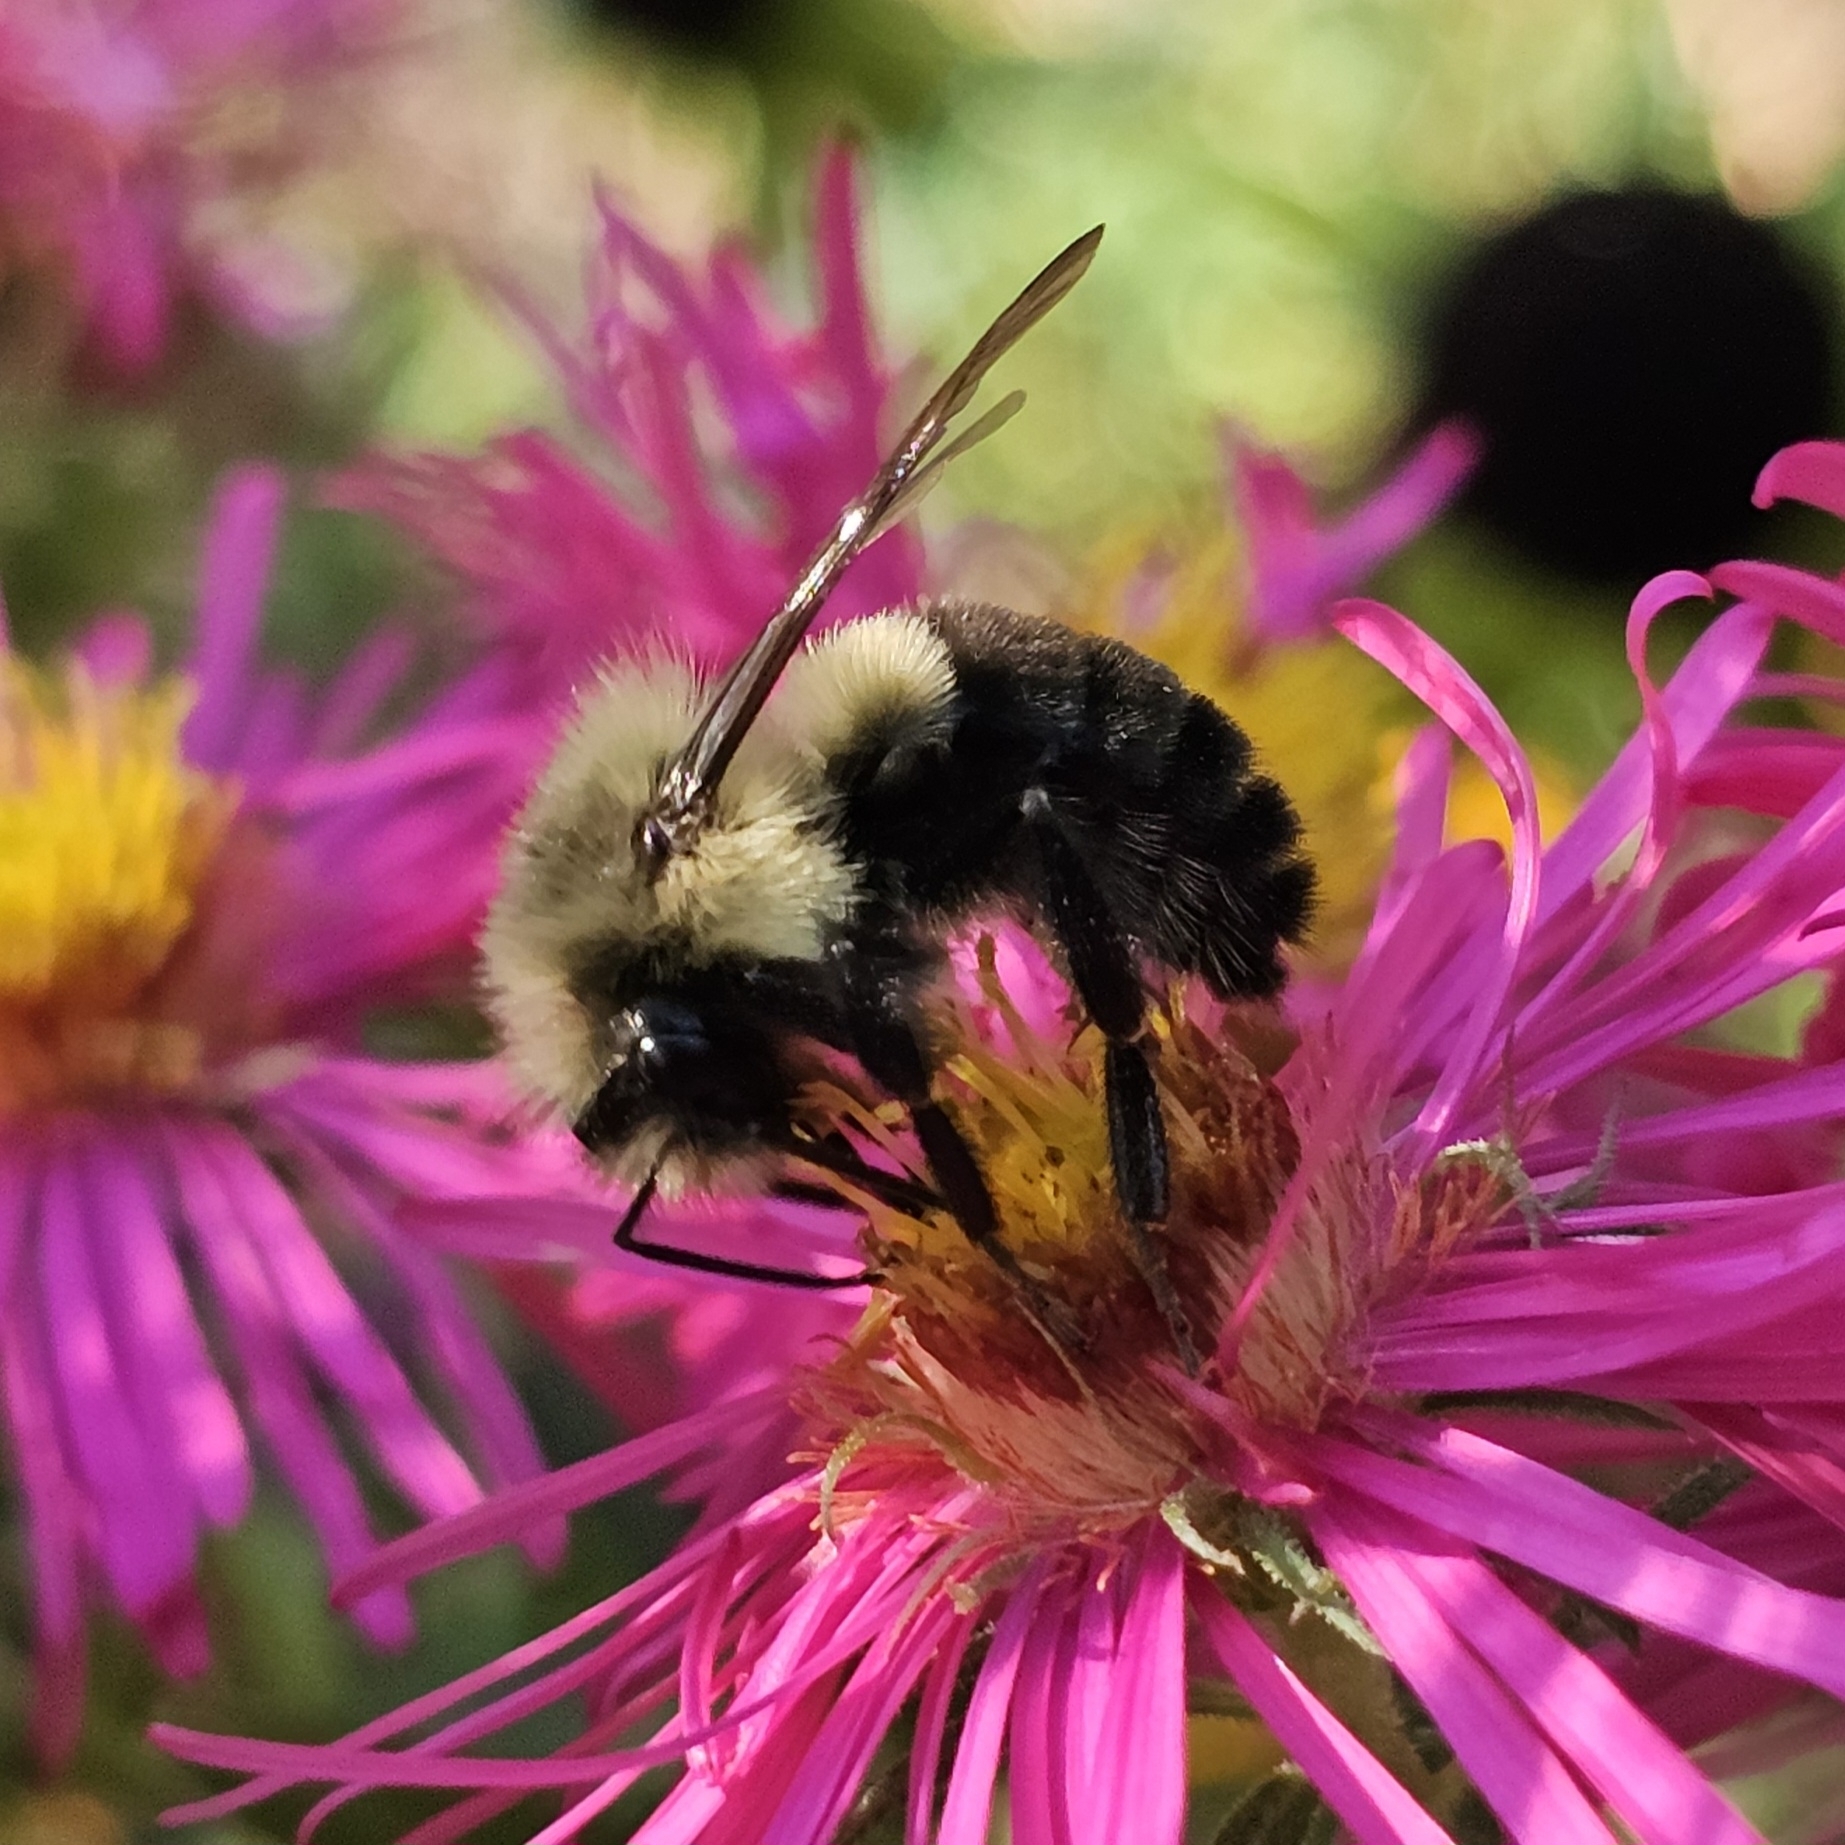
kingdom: Animalia
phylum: Arthropoda
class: Insecta
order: Hymenoptera
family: Apidae
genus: Bombus
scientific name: Bombus impatiens
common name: Common eastern bumble bee
